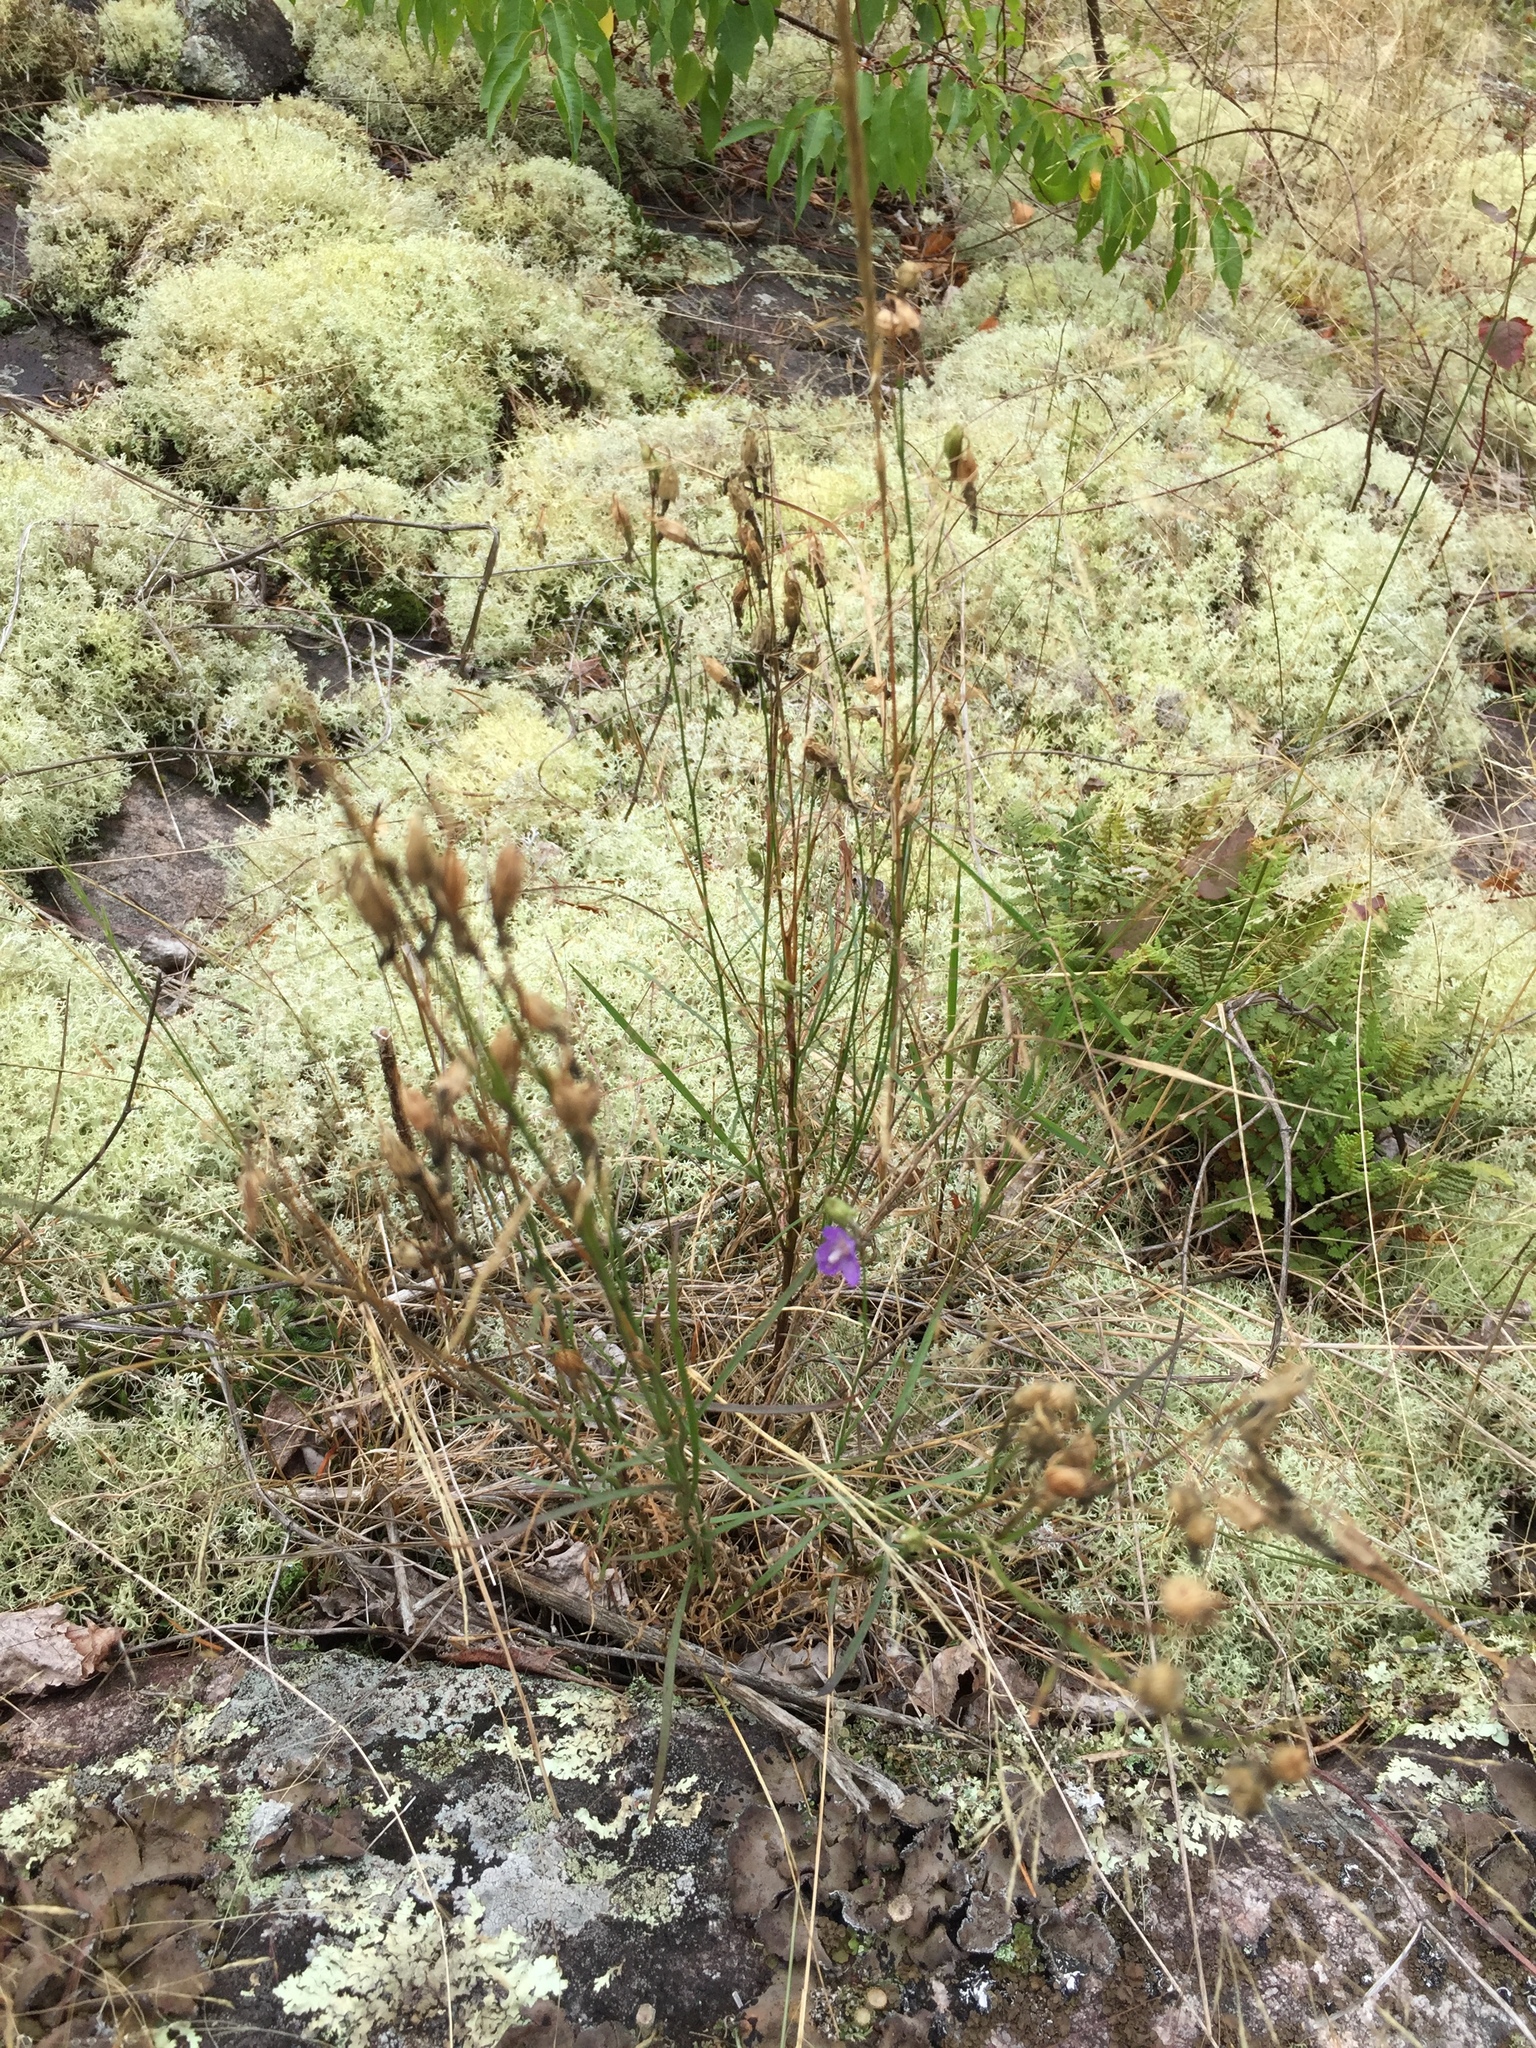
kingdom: Plantae
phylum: Tracheophyta
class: Magnoliopsida
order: Asterales
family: Campanulaceae
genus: Campanula
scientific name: Campanula petiolata
